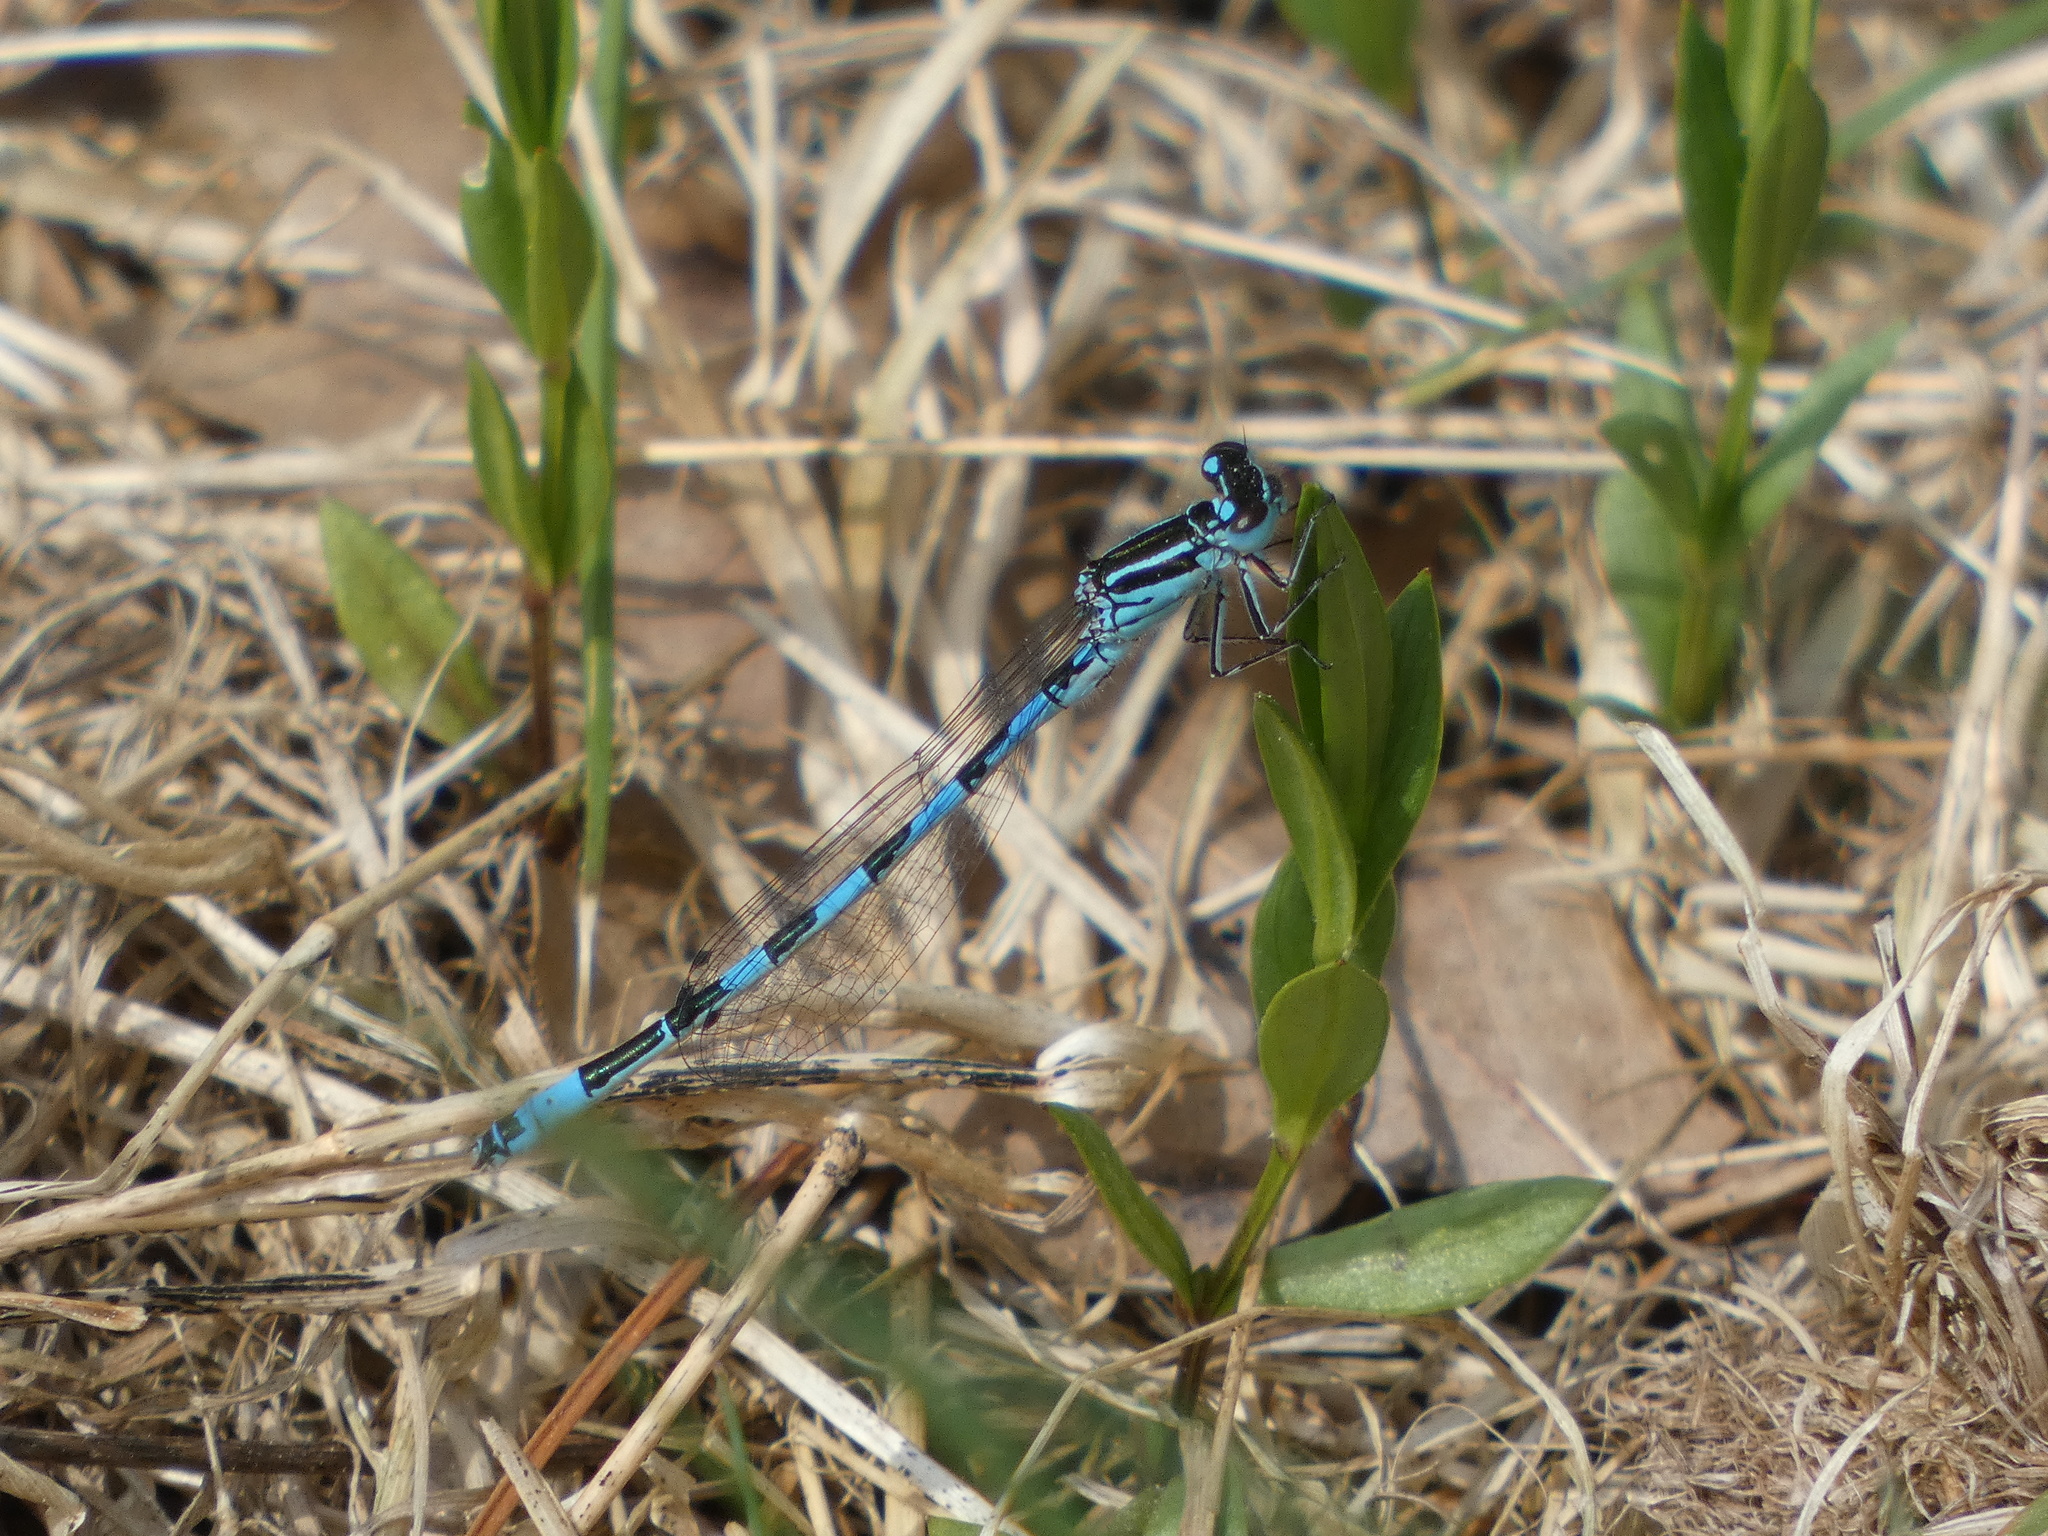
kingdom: Animalia
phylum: Arthropoda
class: Insecta
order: Odonata
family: Coenagrionidae
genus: Coenagrion
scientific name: Coenagrion mercuriale
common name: Southern damselfly
